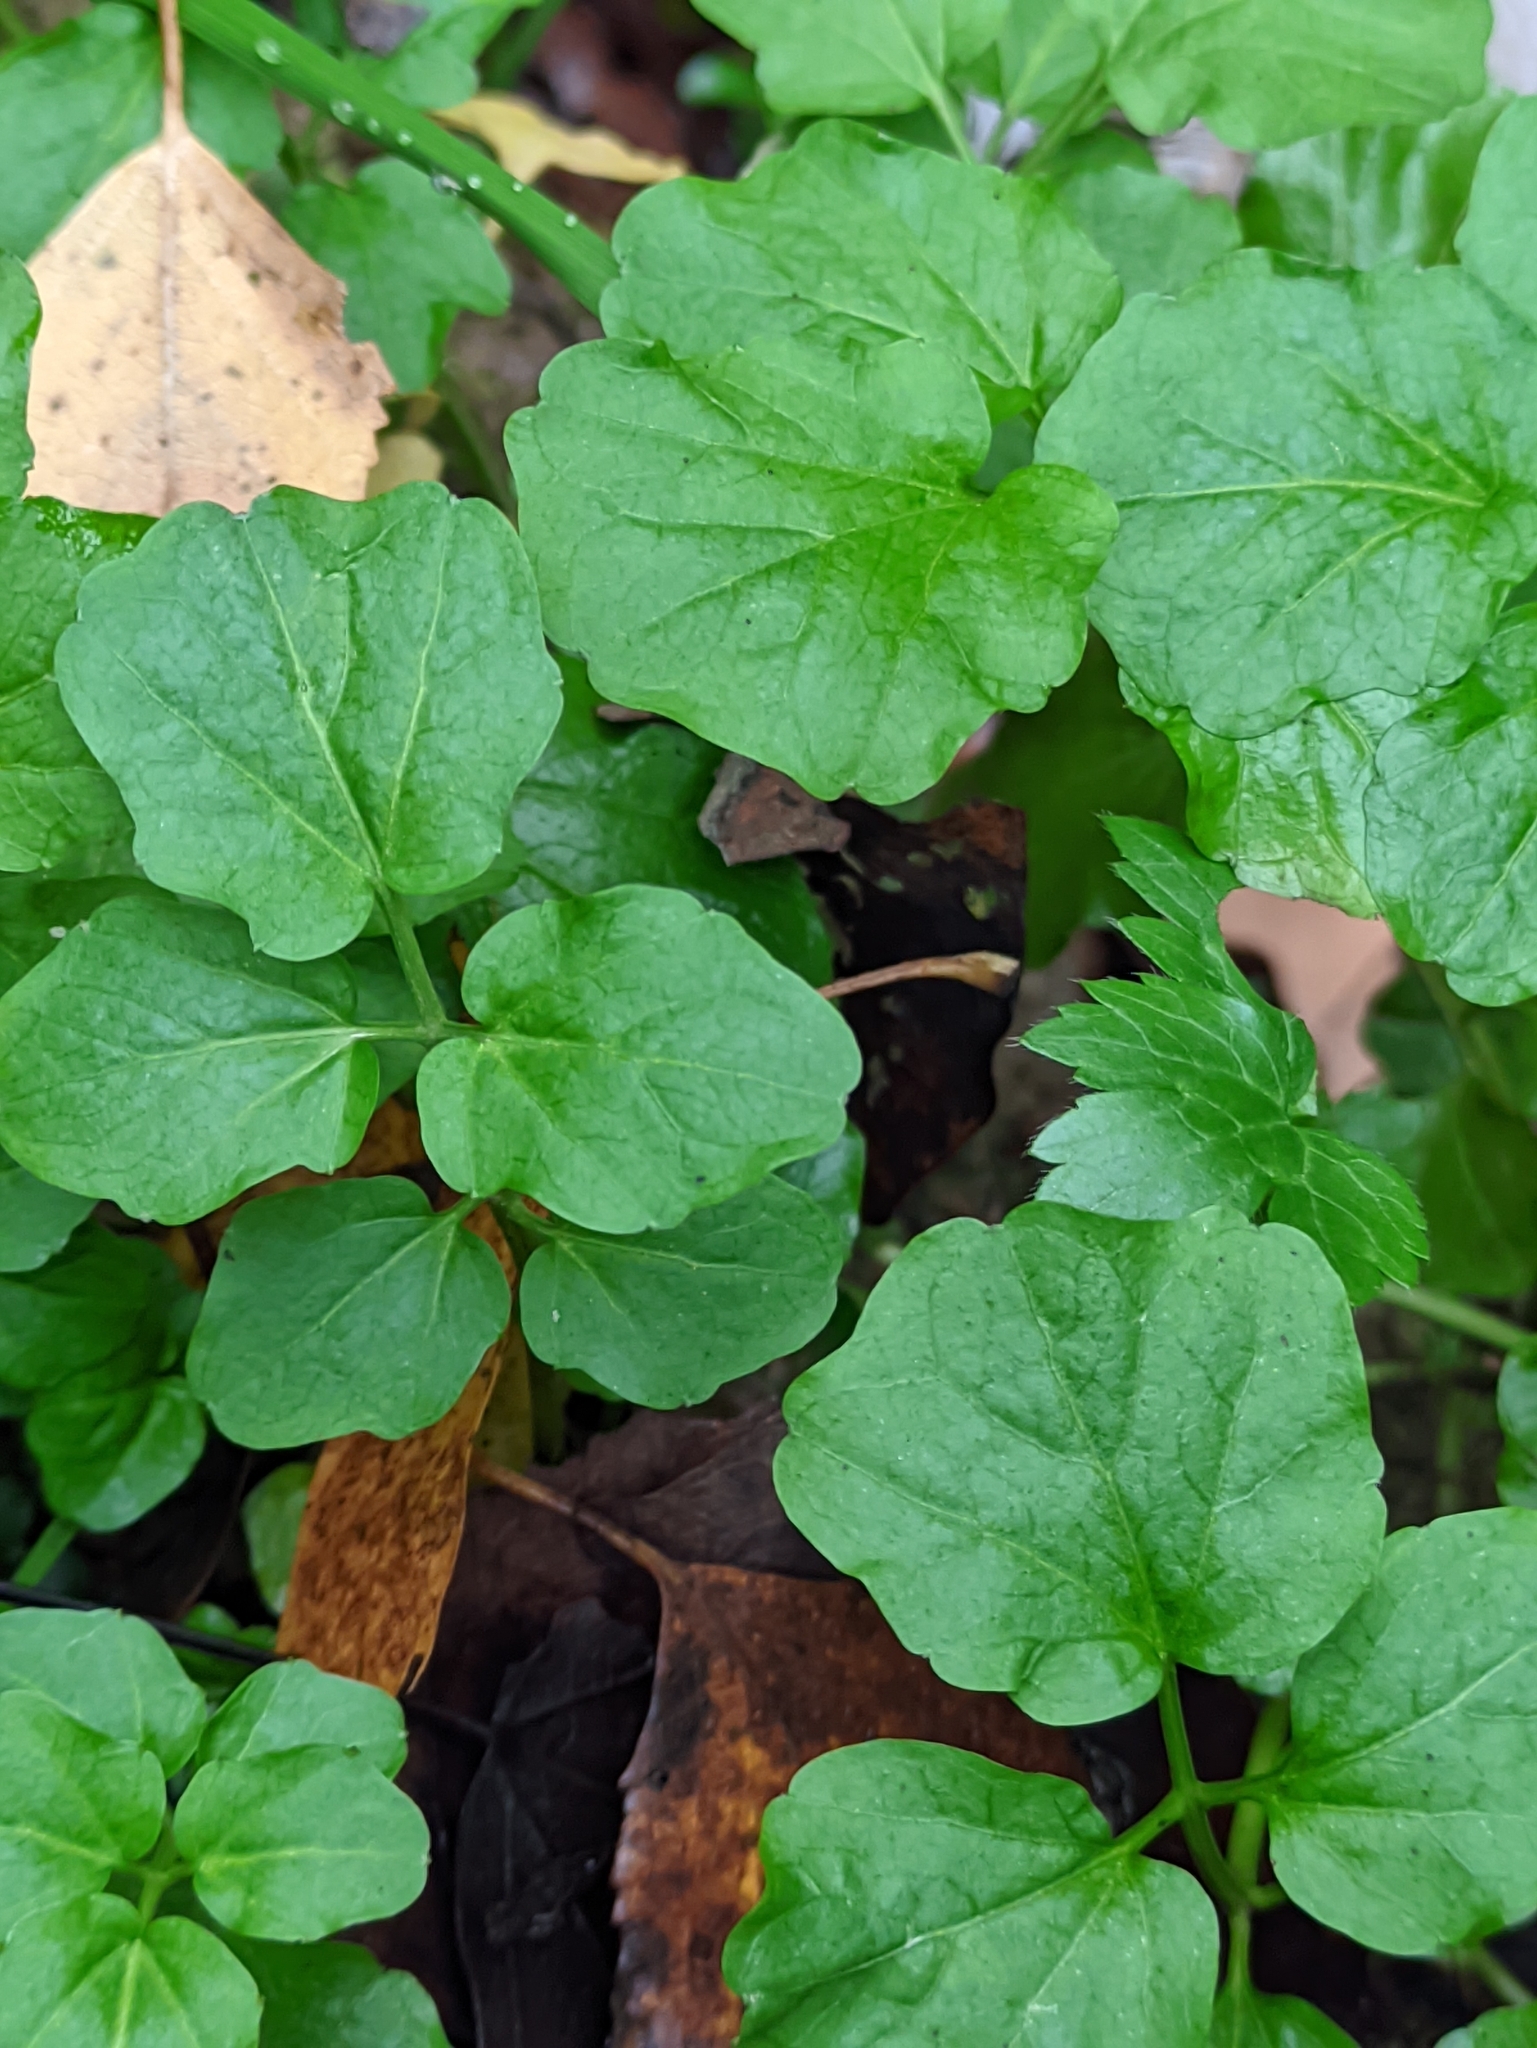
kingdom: Plantae
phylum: Tracheophyta
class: Magnoliopsida
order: Brassicales
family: Brassicaceae
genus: Cardamine
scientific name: Cardamine amara
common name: Large bitter-cress
